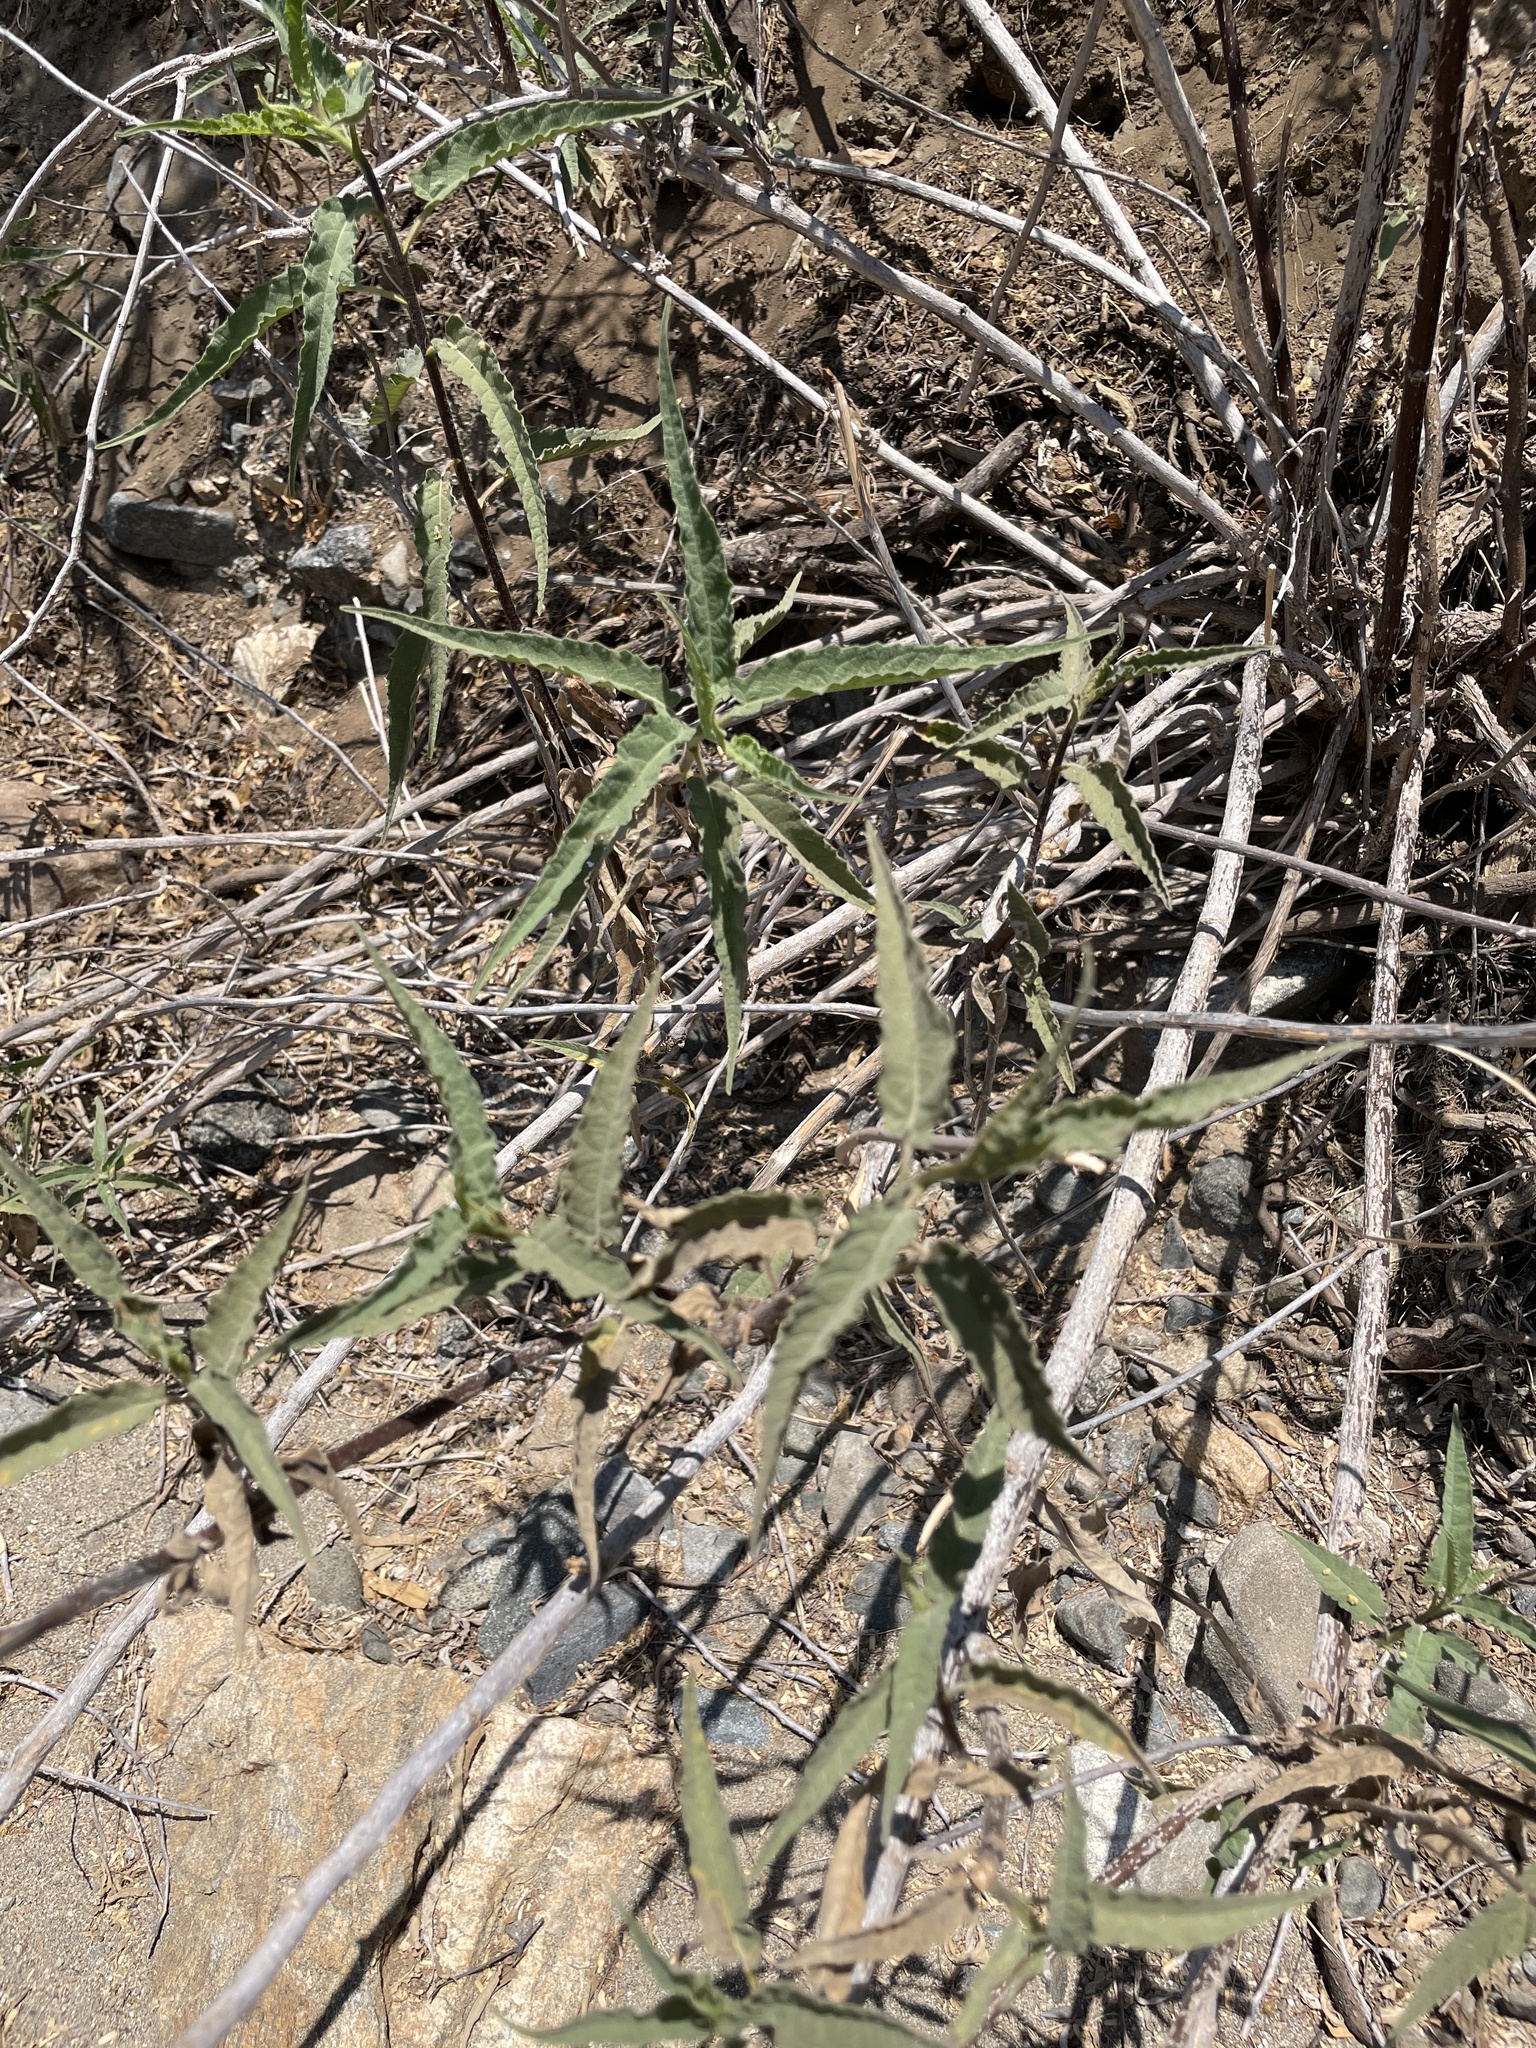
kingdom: Plantae
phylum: Tracheophyta
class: Magnoliopsida
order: Asterales
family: Asteraceae
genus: Ambrosia
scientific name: Ambrosia ambrosioides
